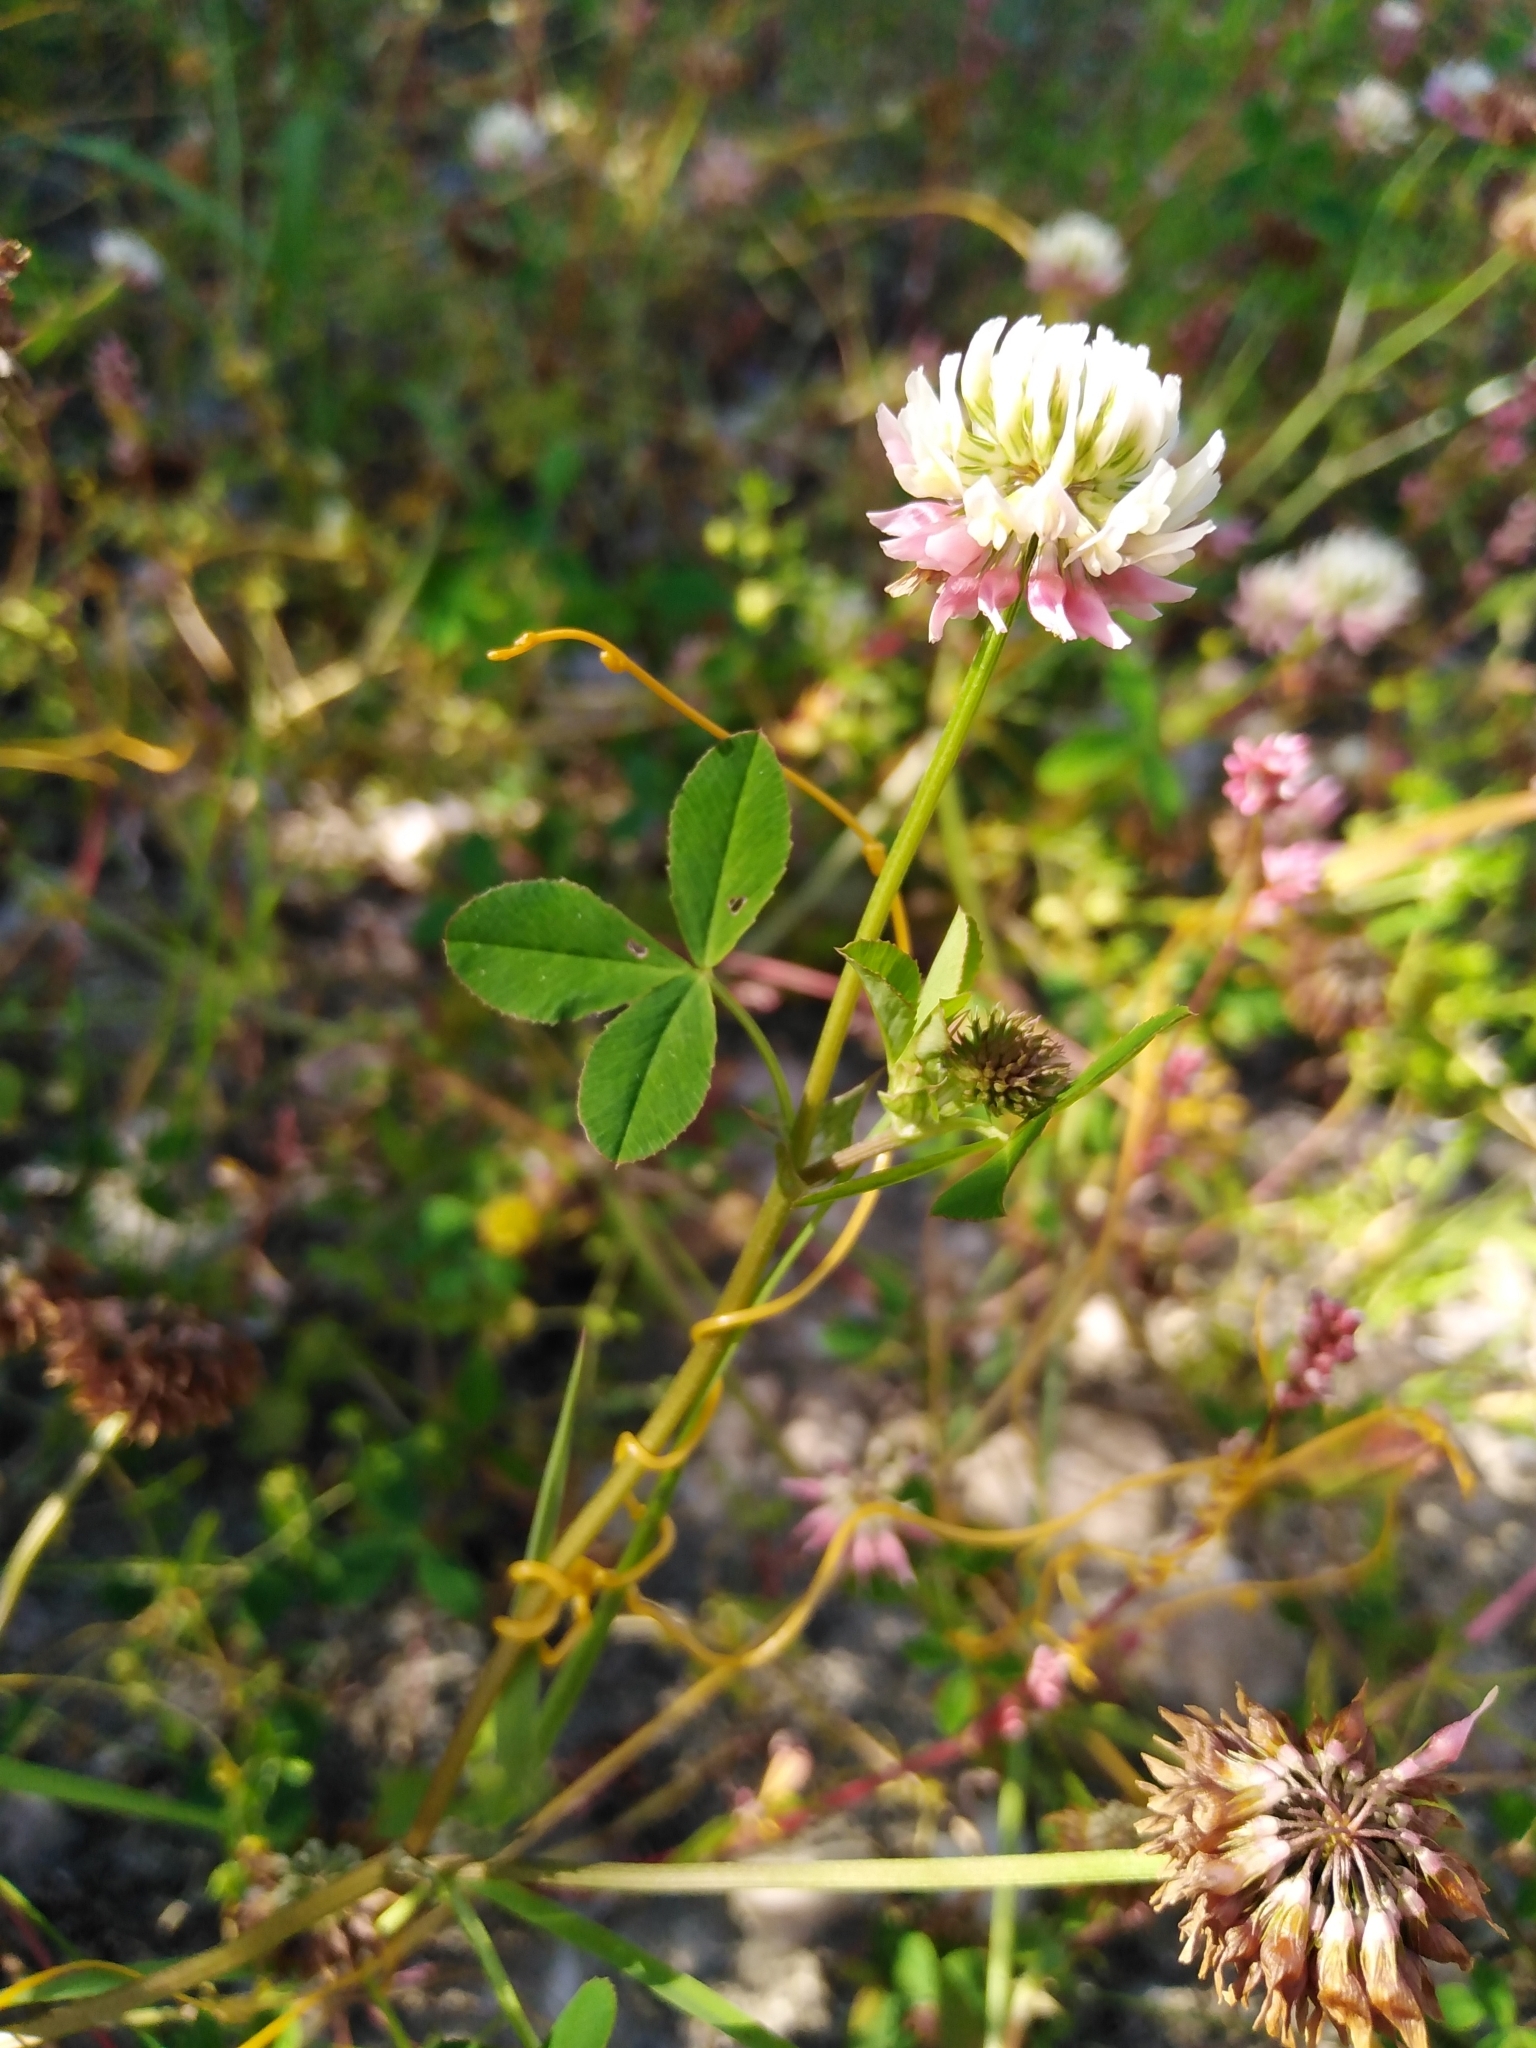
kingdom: Plantae
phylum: Tracheophyta
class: Magnoliopsida
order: Solanales
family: Convolvulaceae
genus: Cuscuta
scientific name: Cuscuta campestris
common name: Yellow dodder
